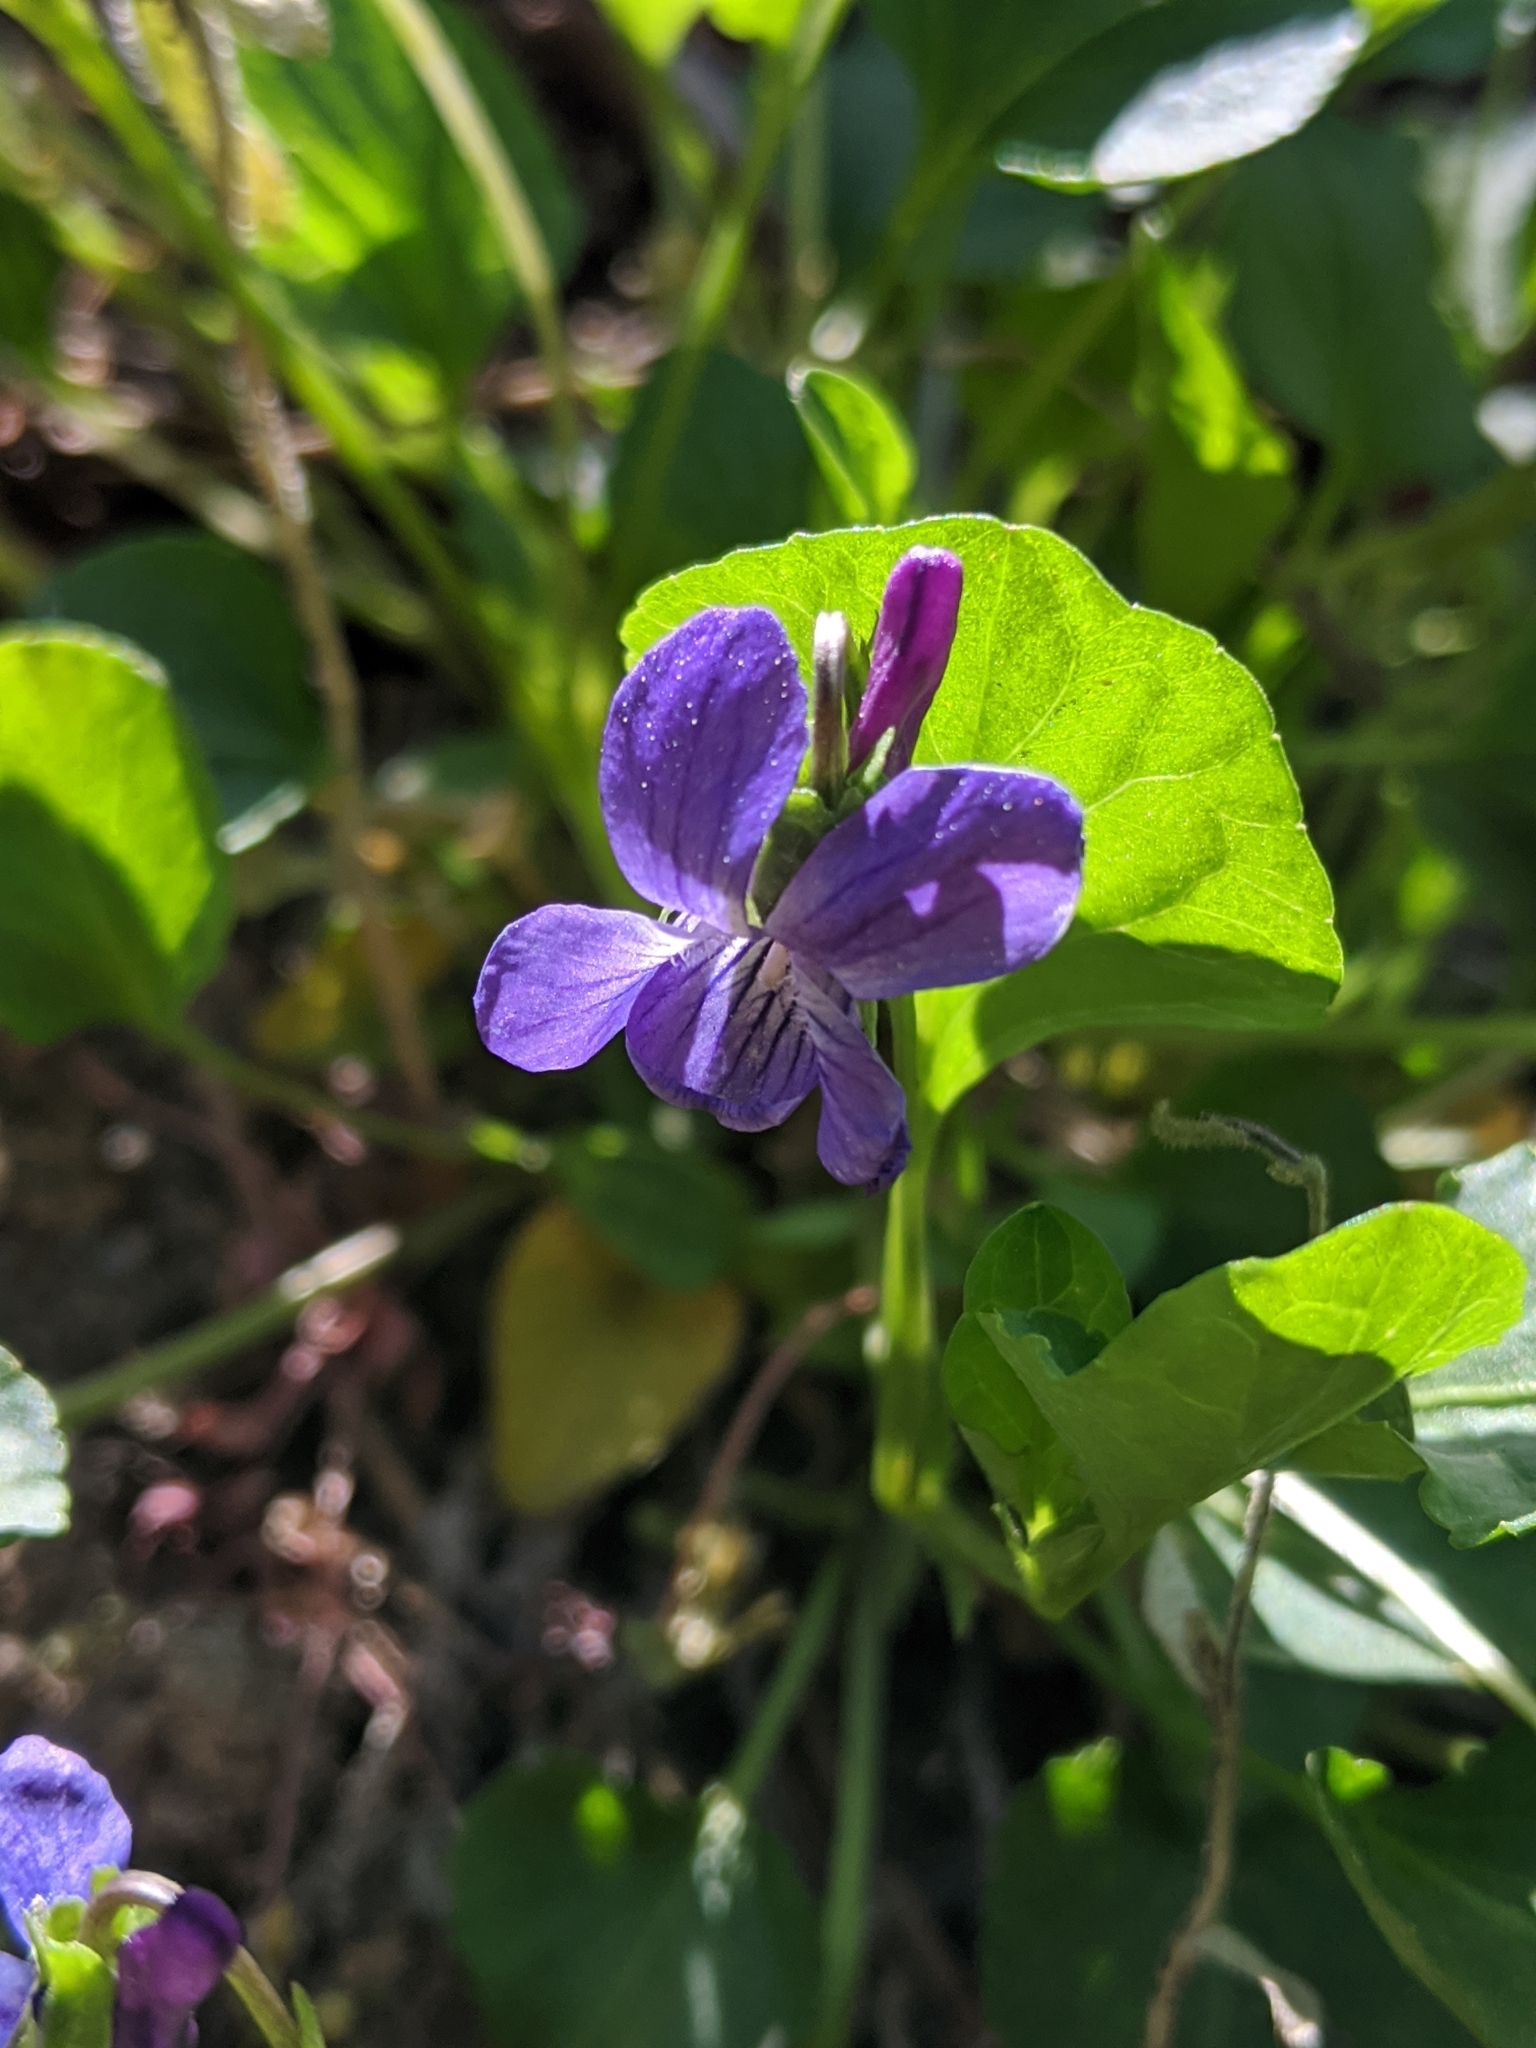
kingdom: Plantae
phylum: Tracheophyta
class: Magnoliopsida
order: Malpighiales
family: Violaceae
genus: Viola
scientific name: Viola adunca
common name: Sand violet
